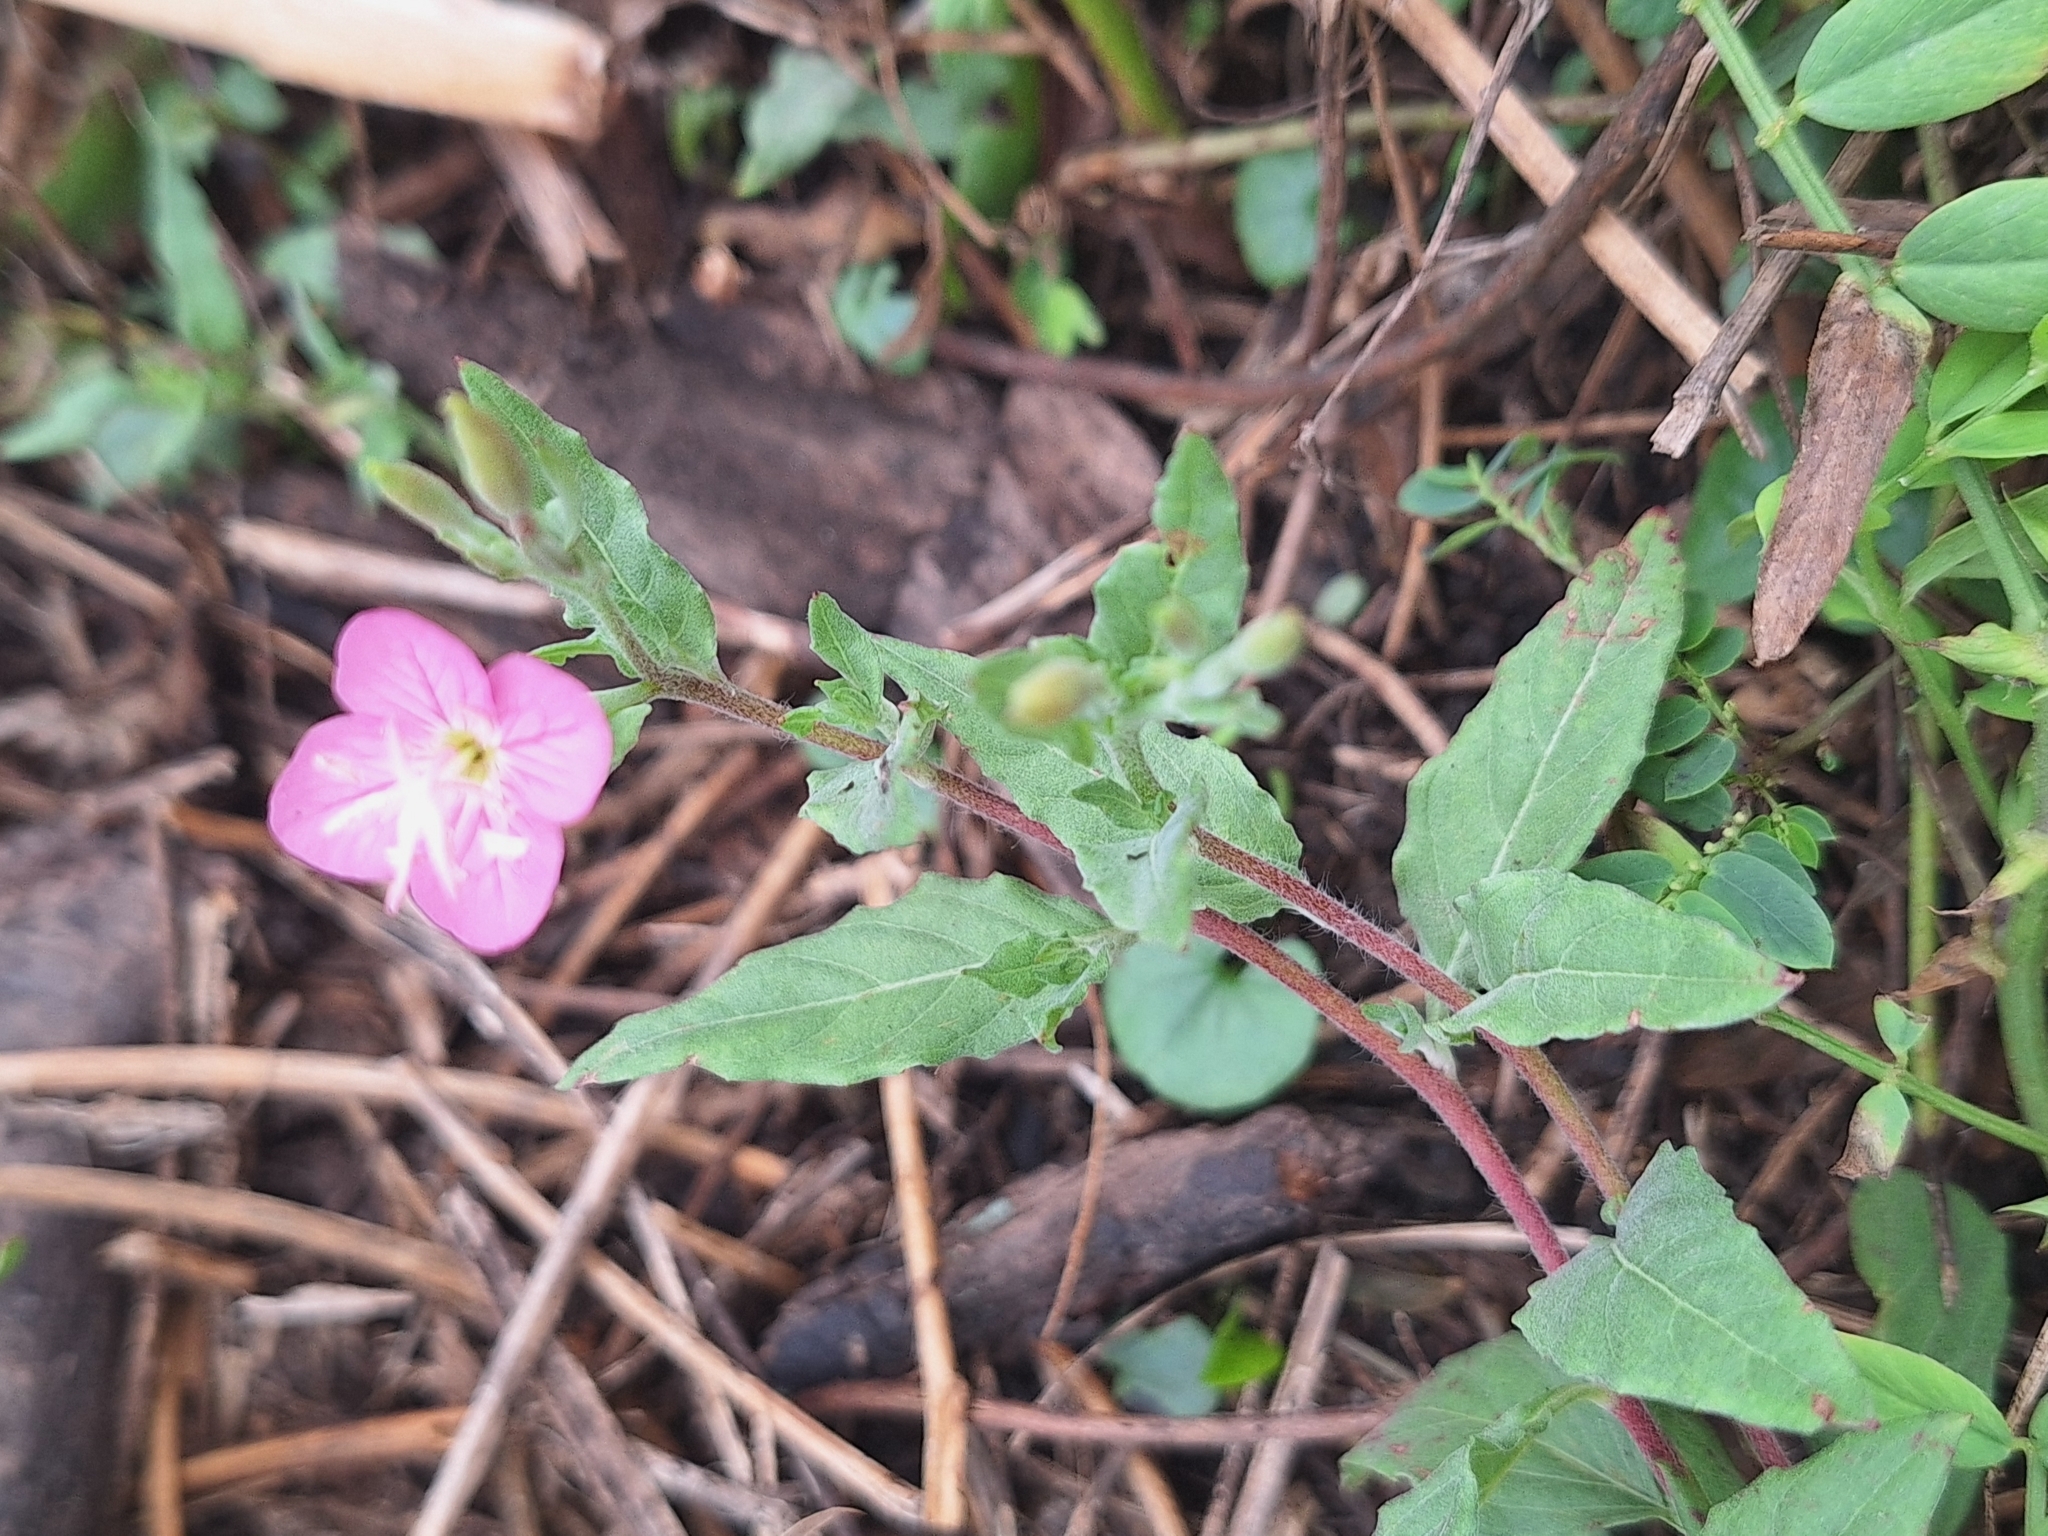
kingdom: Plantae
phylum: Tracheophyta
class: Magnoliopsida
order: Myrtales
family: Onagraceae
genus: Oenothera
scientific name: Oenothera rosea
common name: Rosy evening-primrose
